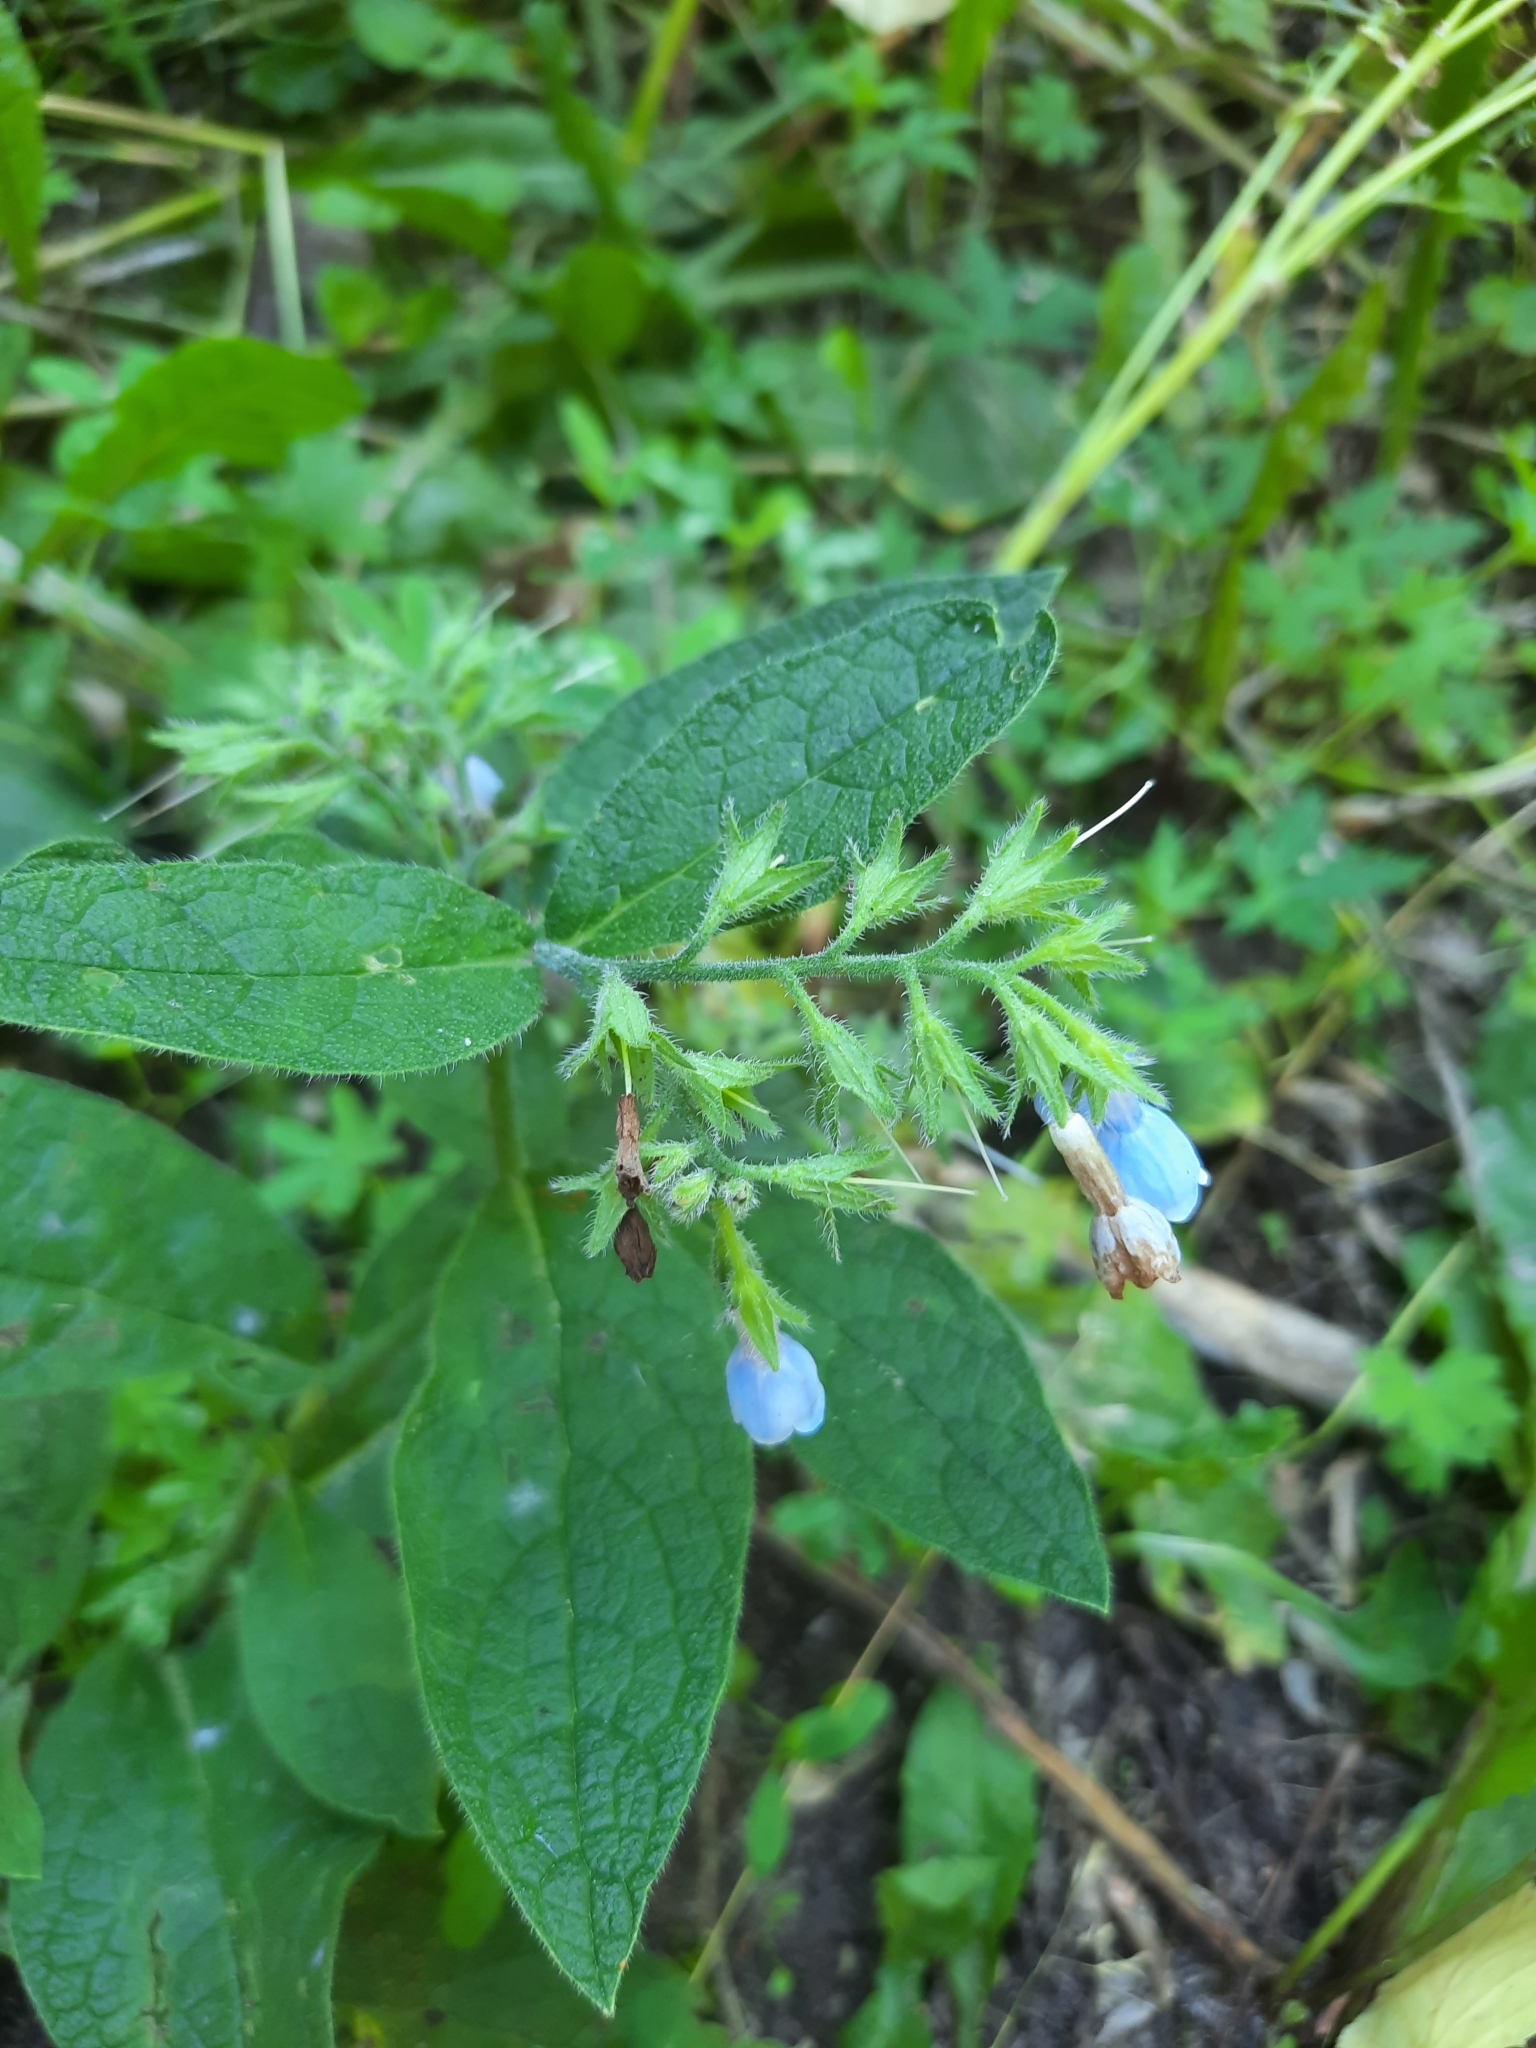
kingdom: Plantae
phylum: Tracheophyta
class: Magnoliopsida
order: Boraginales
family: Boraginaceae
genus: Symphytum
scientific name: Symphytum caucasicum
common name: Caucasian comfrey
